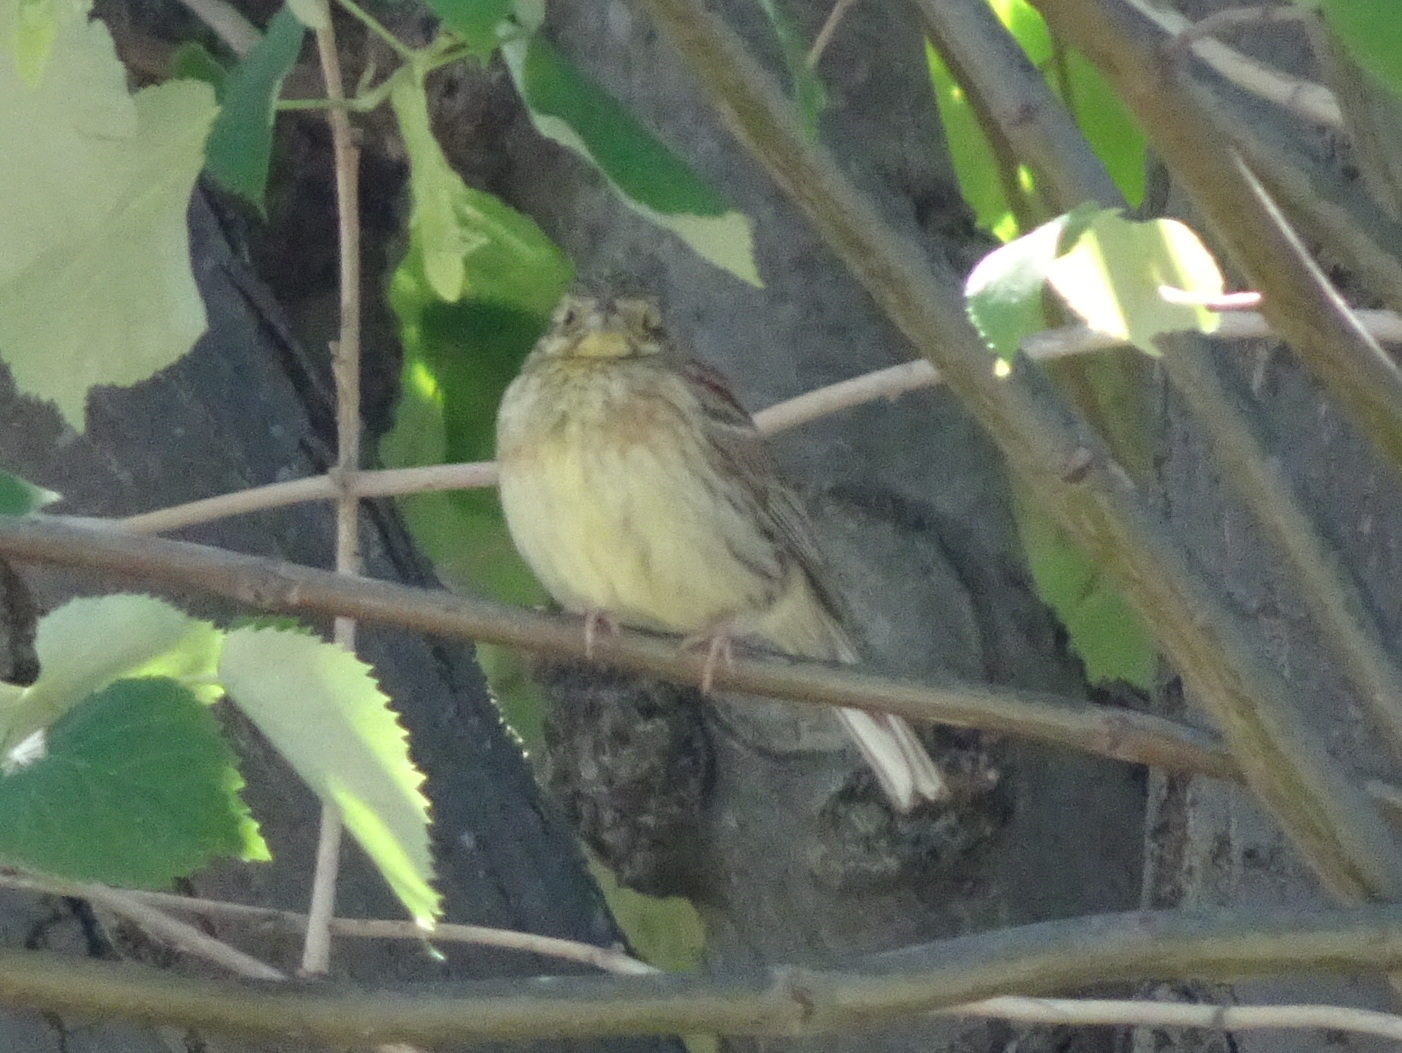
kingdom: Animalia
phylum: Chordata
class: Aves
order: Passeriformes
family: Emberizidae
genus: Emberiza
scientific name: Emberiza cirlus
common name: Cirl bunting
